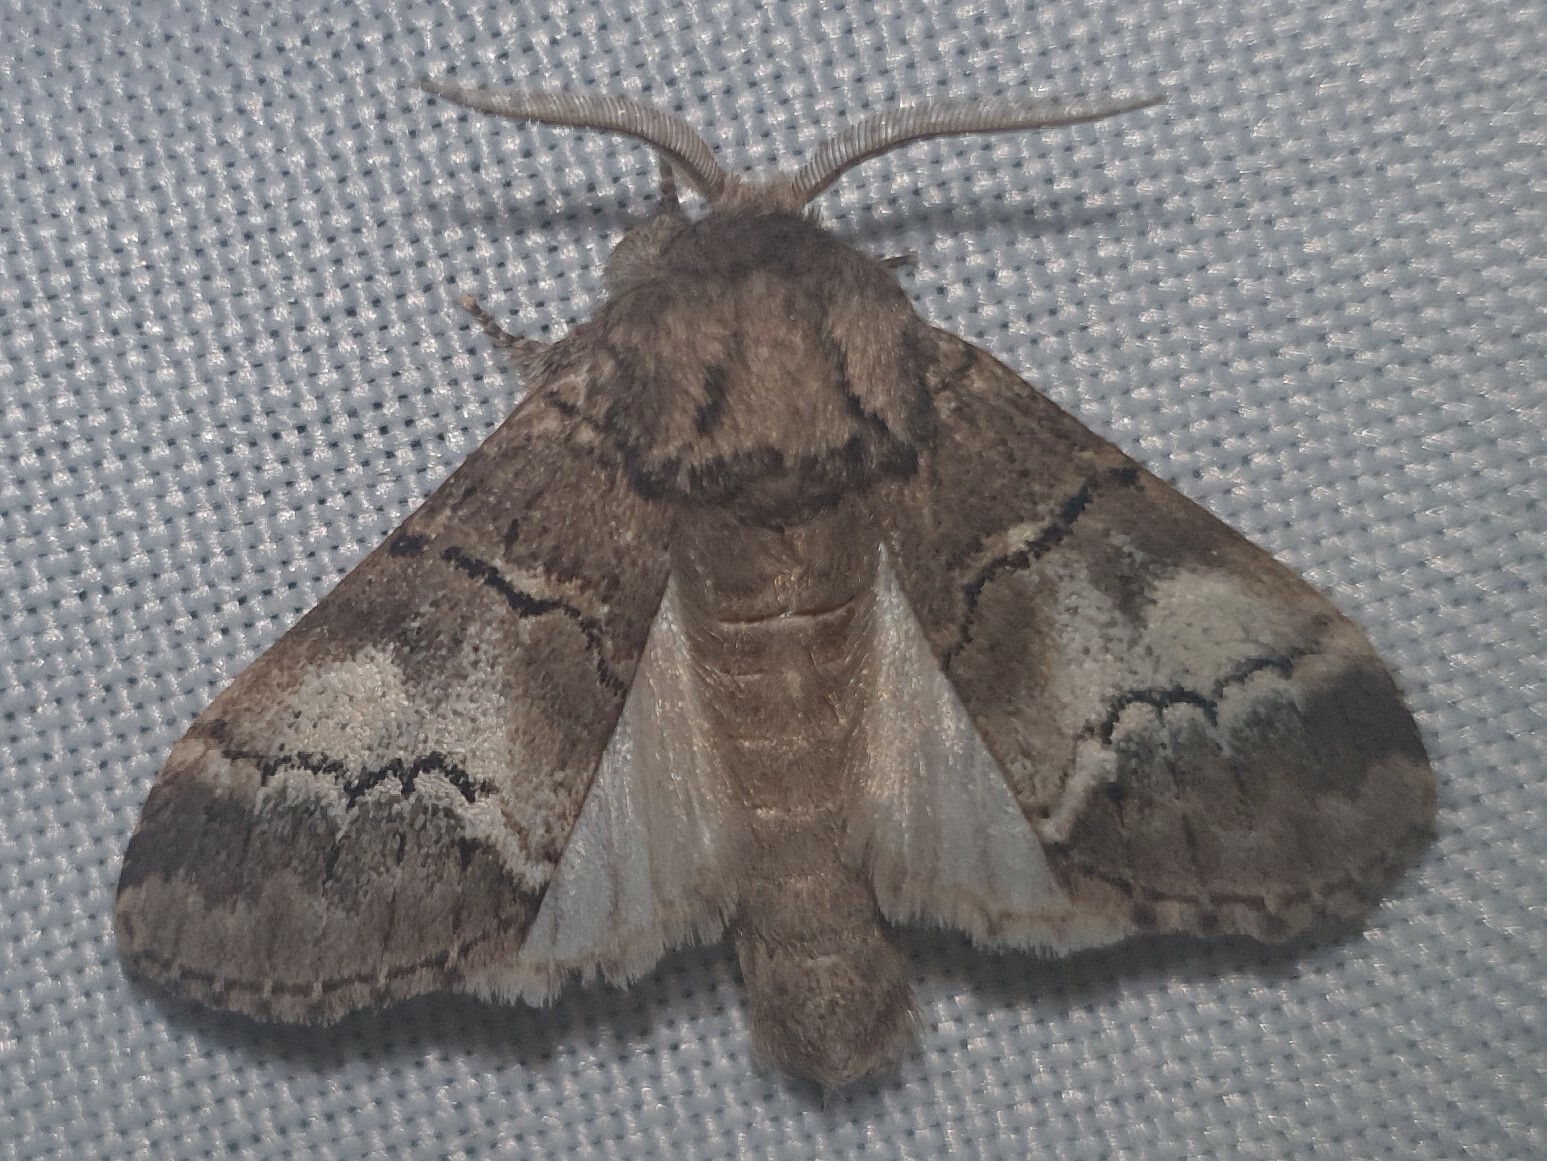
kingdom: Animalia
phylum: Arthropoda
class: Insecta
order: Lepidoptera
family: Notodontidae
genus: Drymonia
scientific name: Drymonia querna
